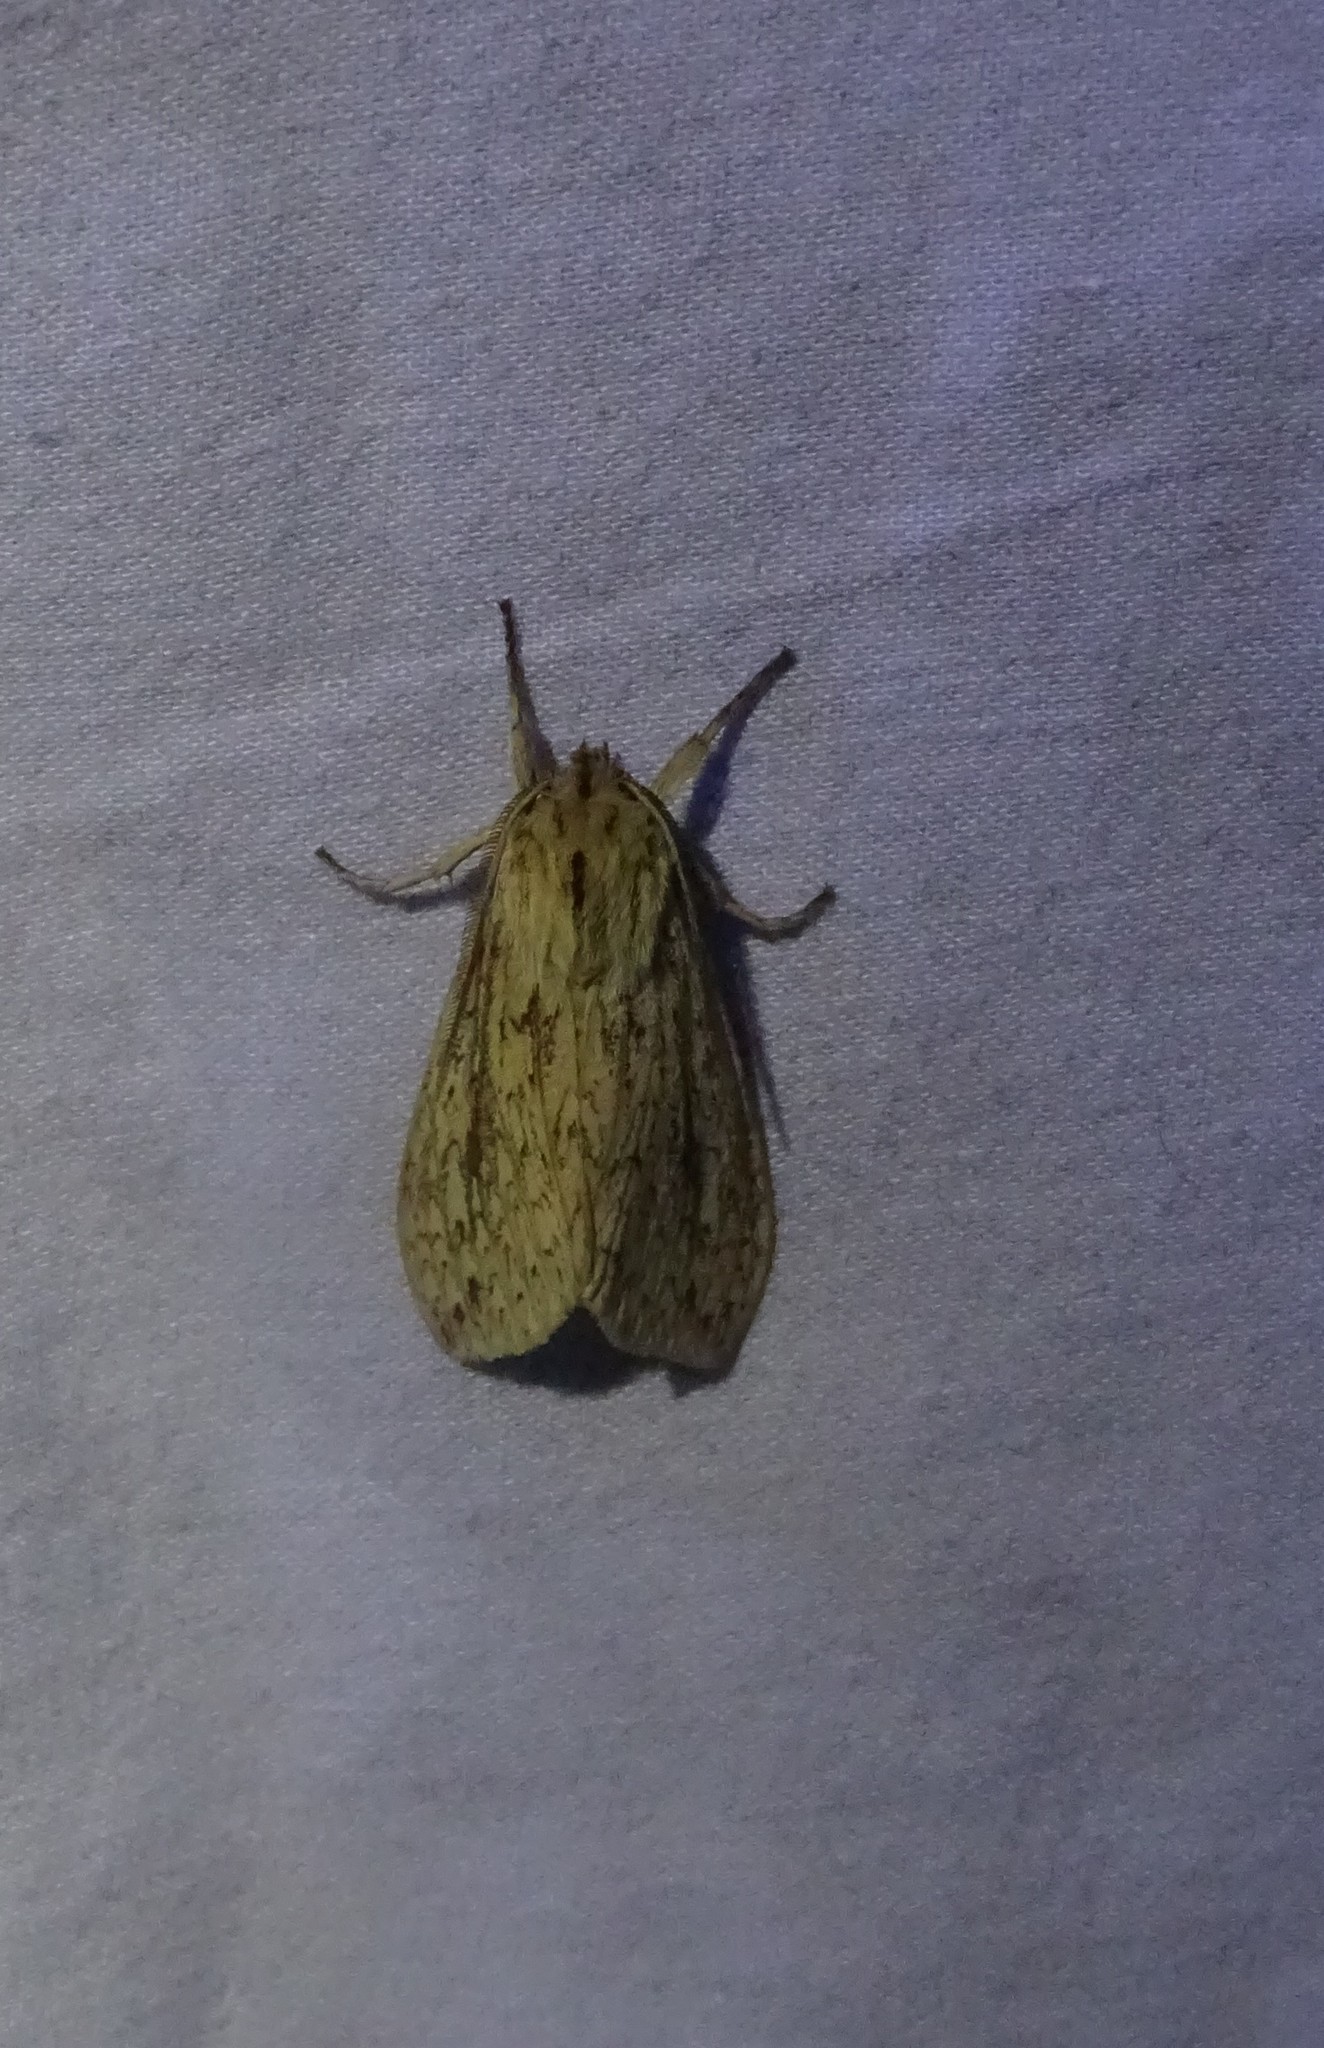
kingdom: Animalia
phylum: Arthropoda
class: Insecta
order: Lepidoptera
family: Erebidae
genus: Leucanopsis
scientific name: Leucanopsis longa
